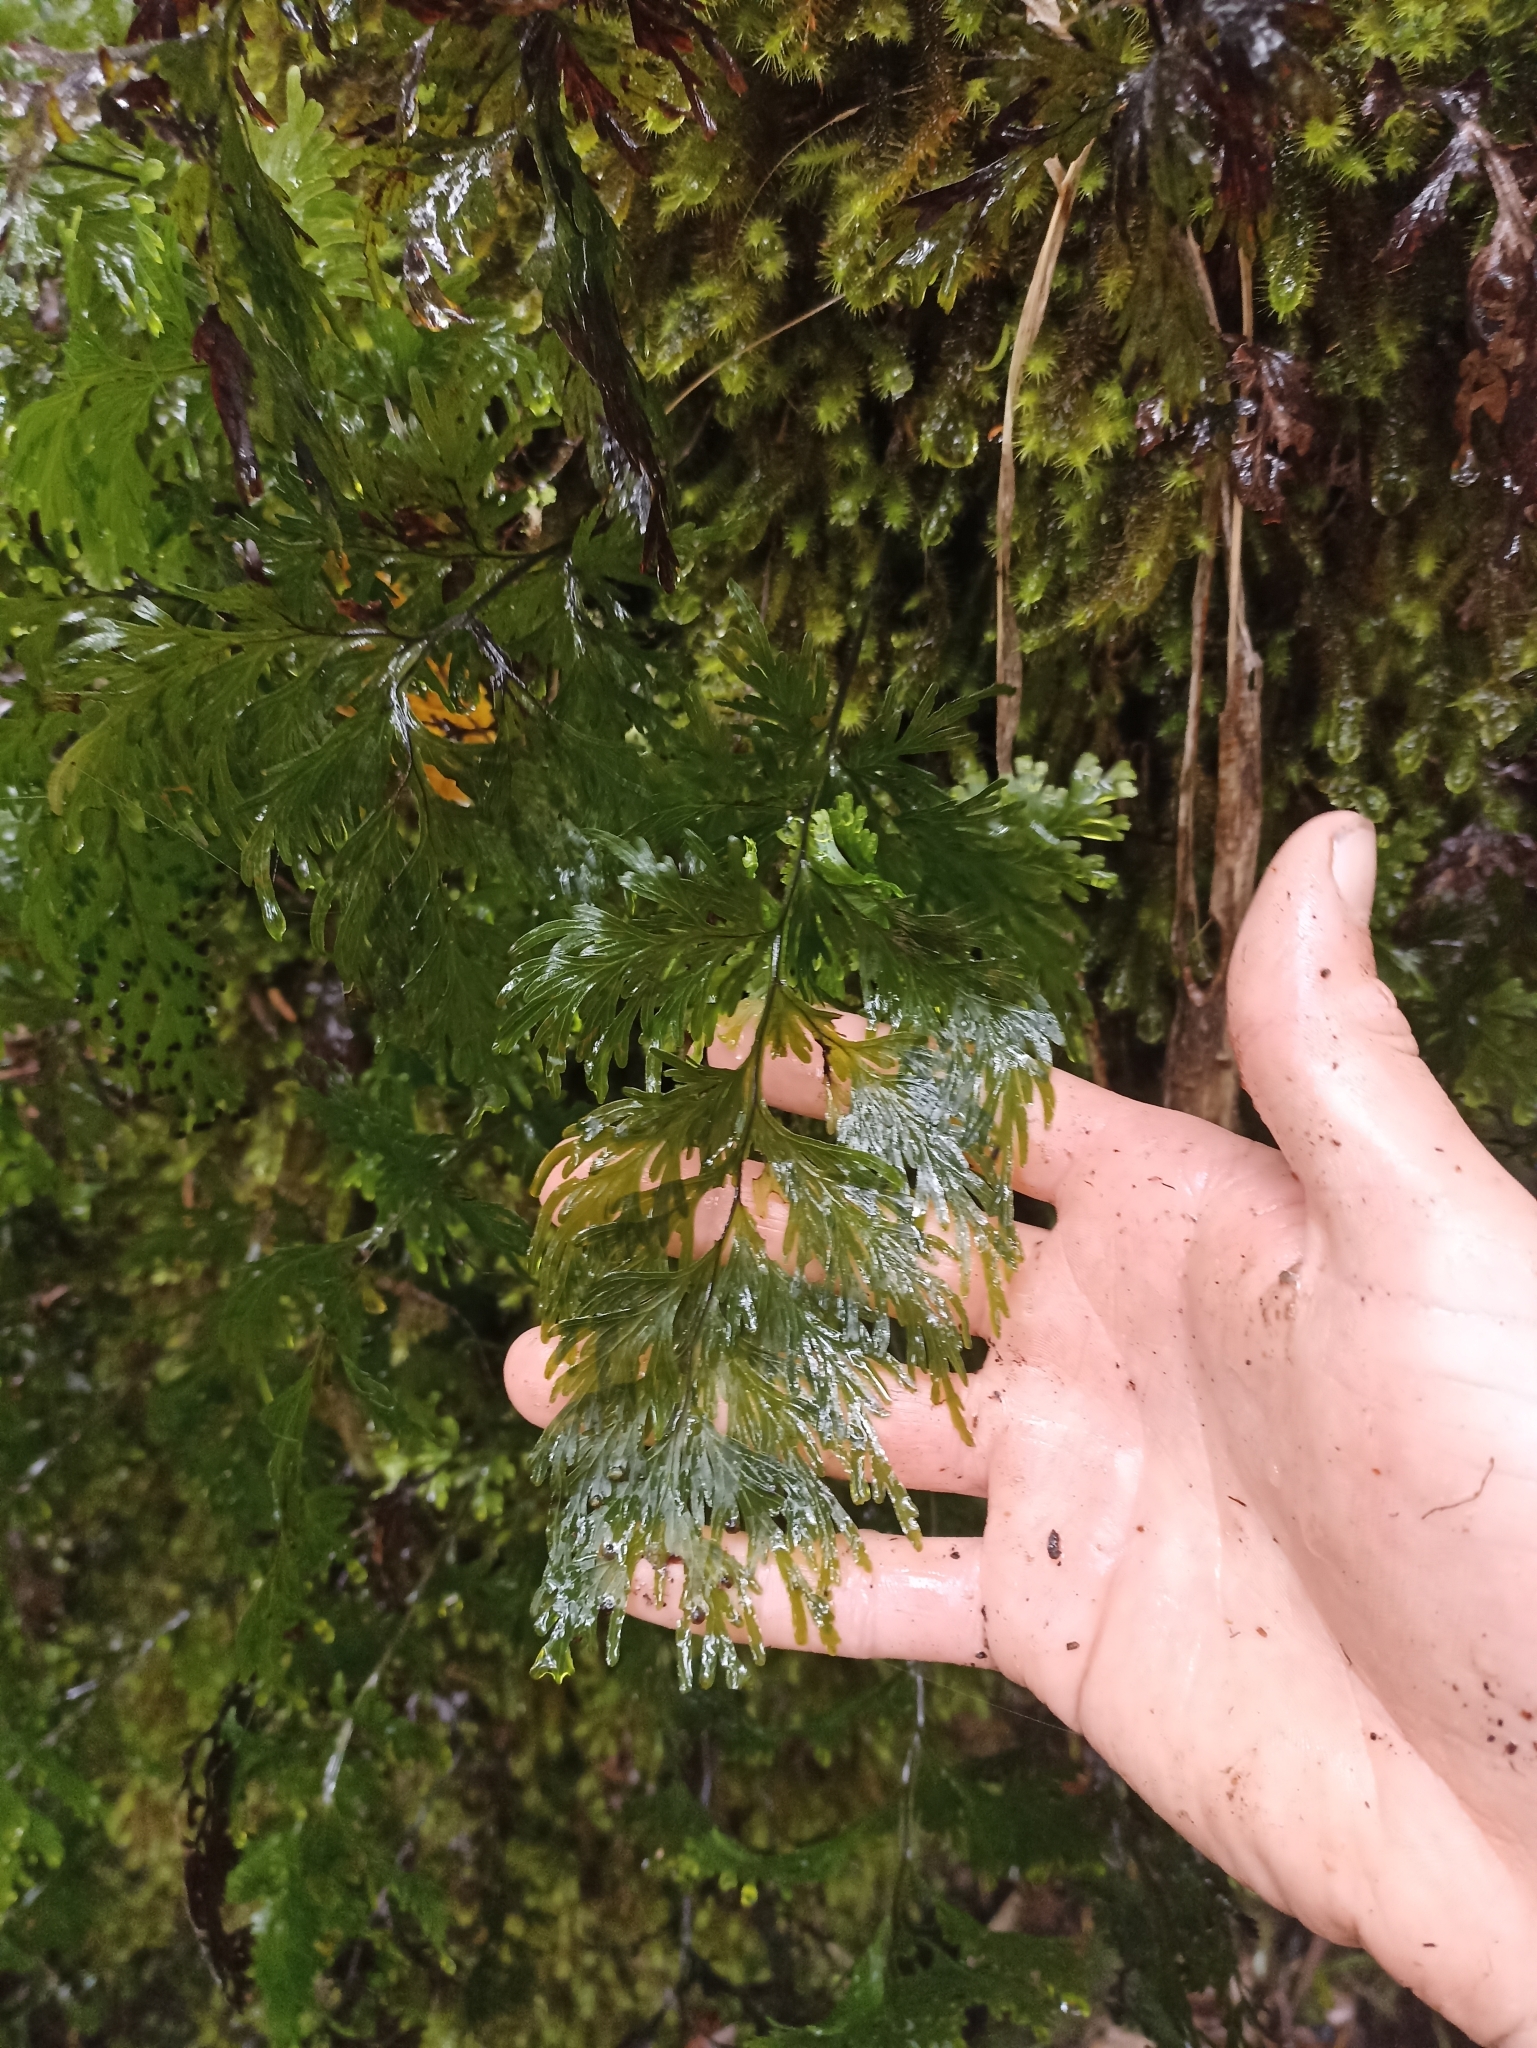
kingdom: Plantae
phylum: Tracheophyta
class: Polypodiopsida
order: Hymenophyllales
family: Hymenophyllaceae
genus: Hymenophyllum
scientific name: Hymenophyllum dilatatum
